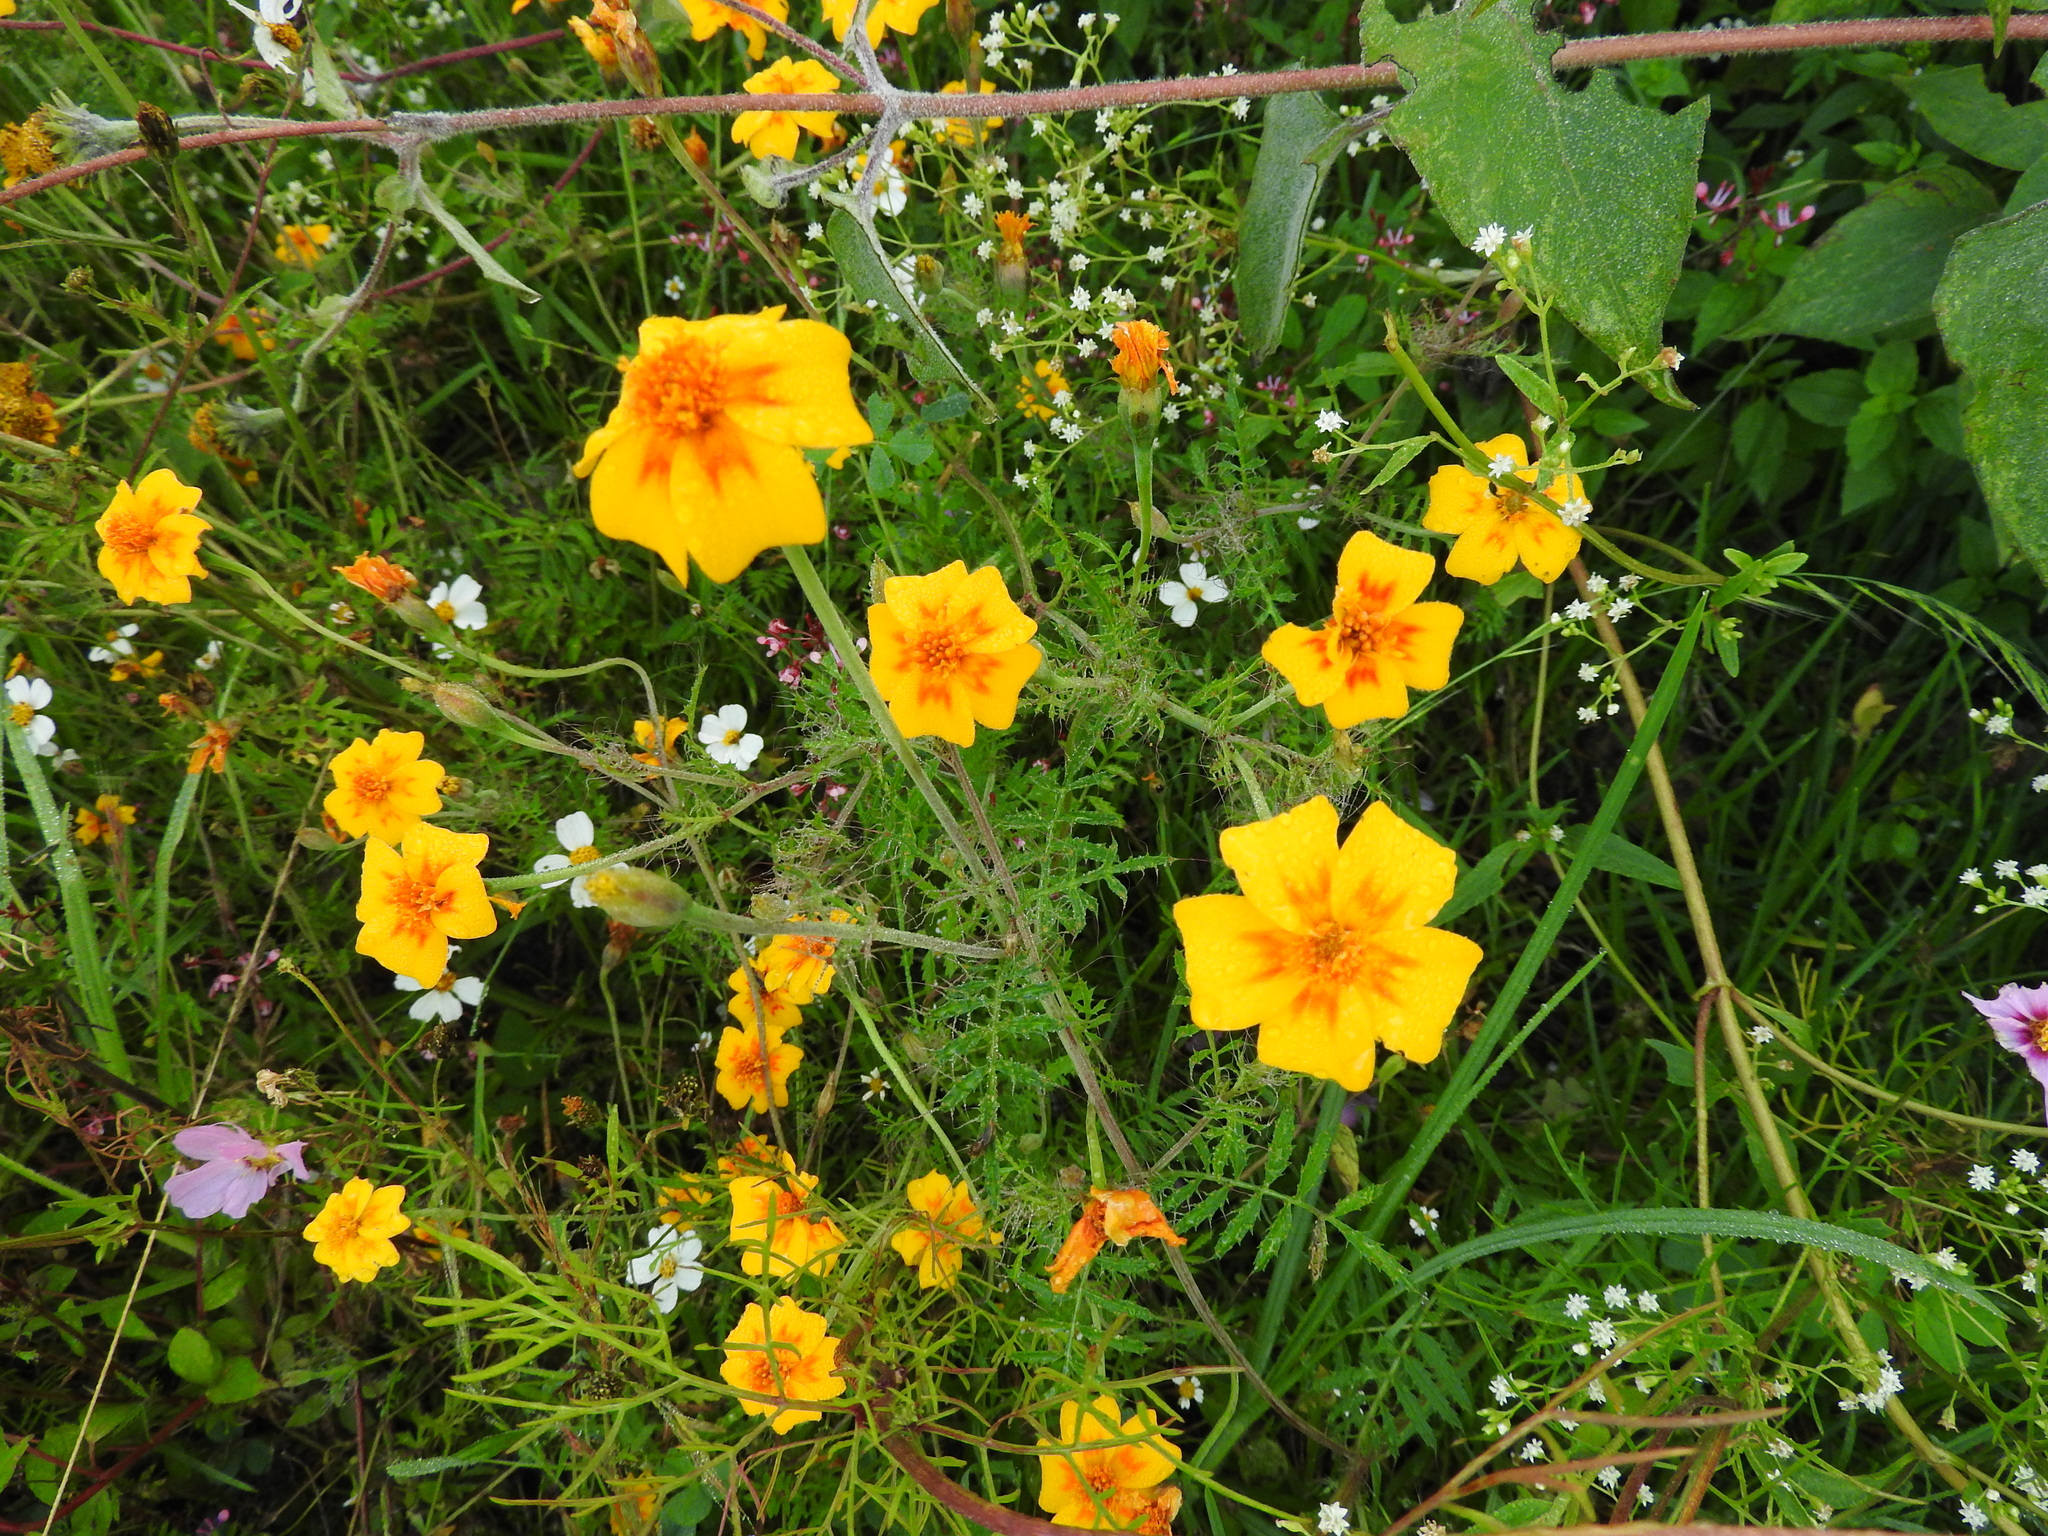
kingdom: Plantae
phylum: Tracheophyta
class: Magnoliopsida
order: Asterales
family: Asteraceae
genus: Tagetes
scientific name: Tagetes lunulata
